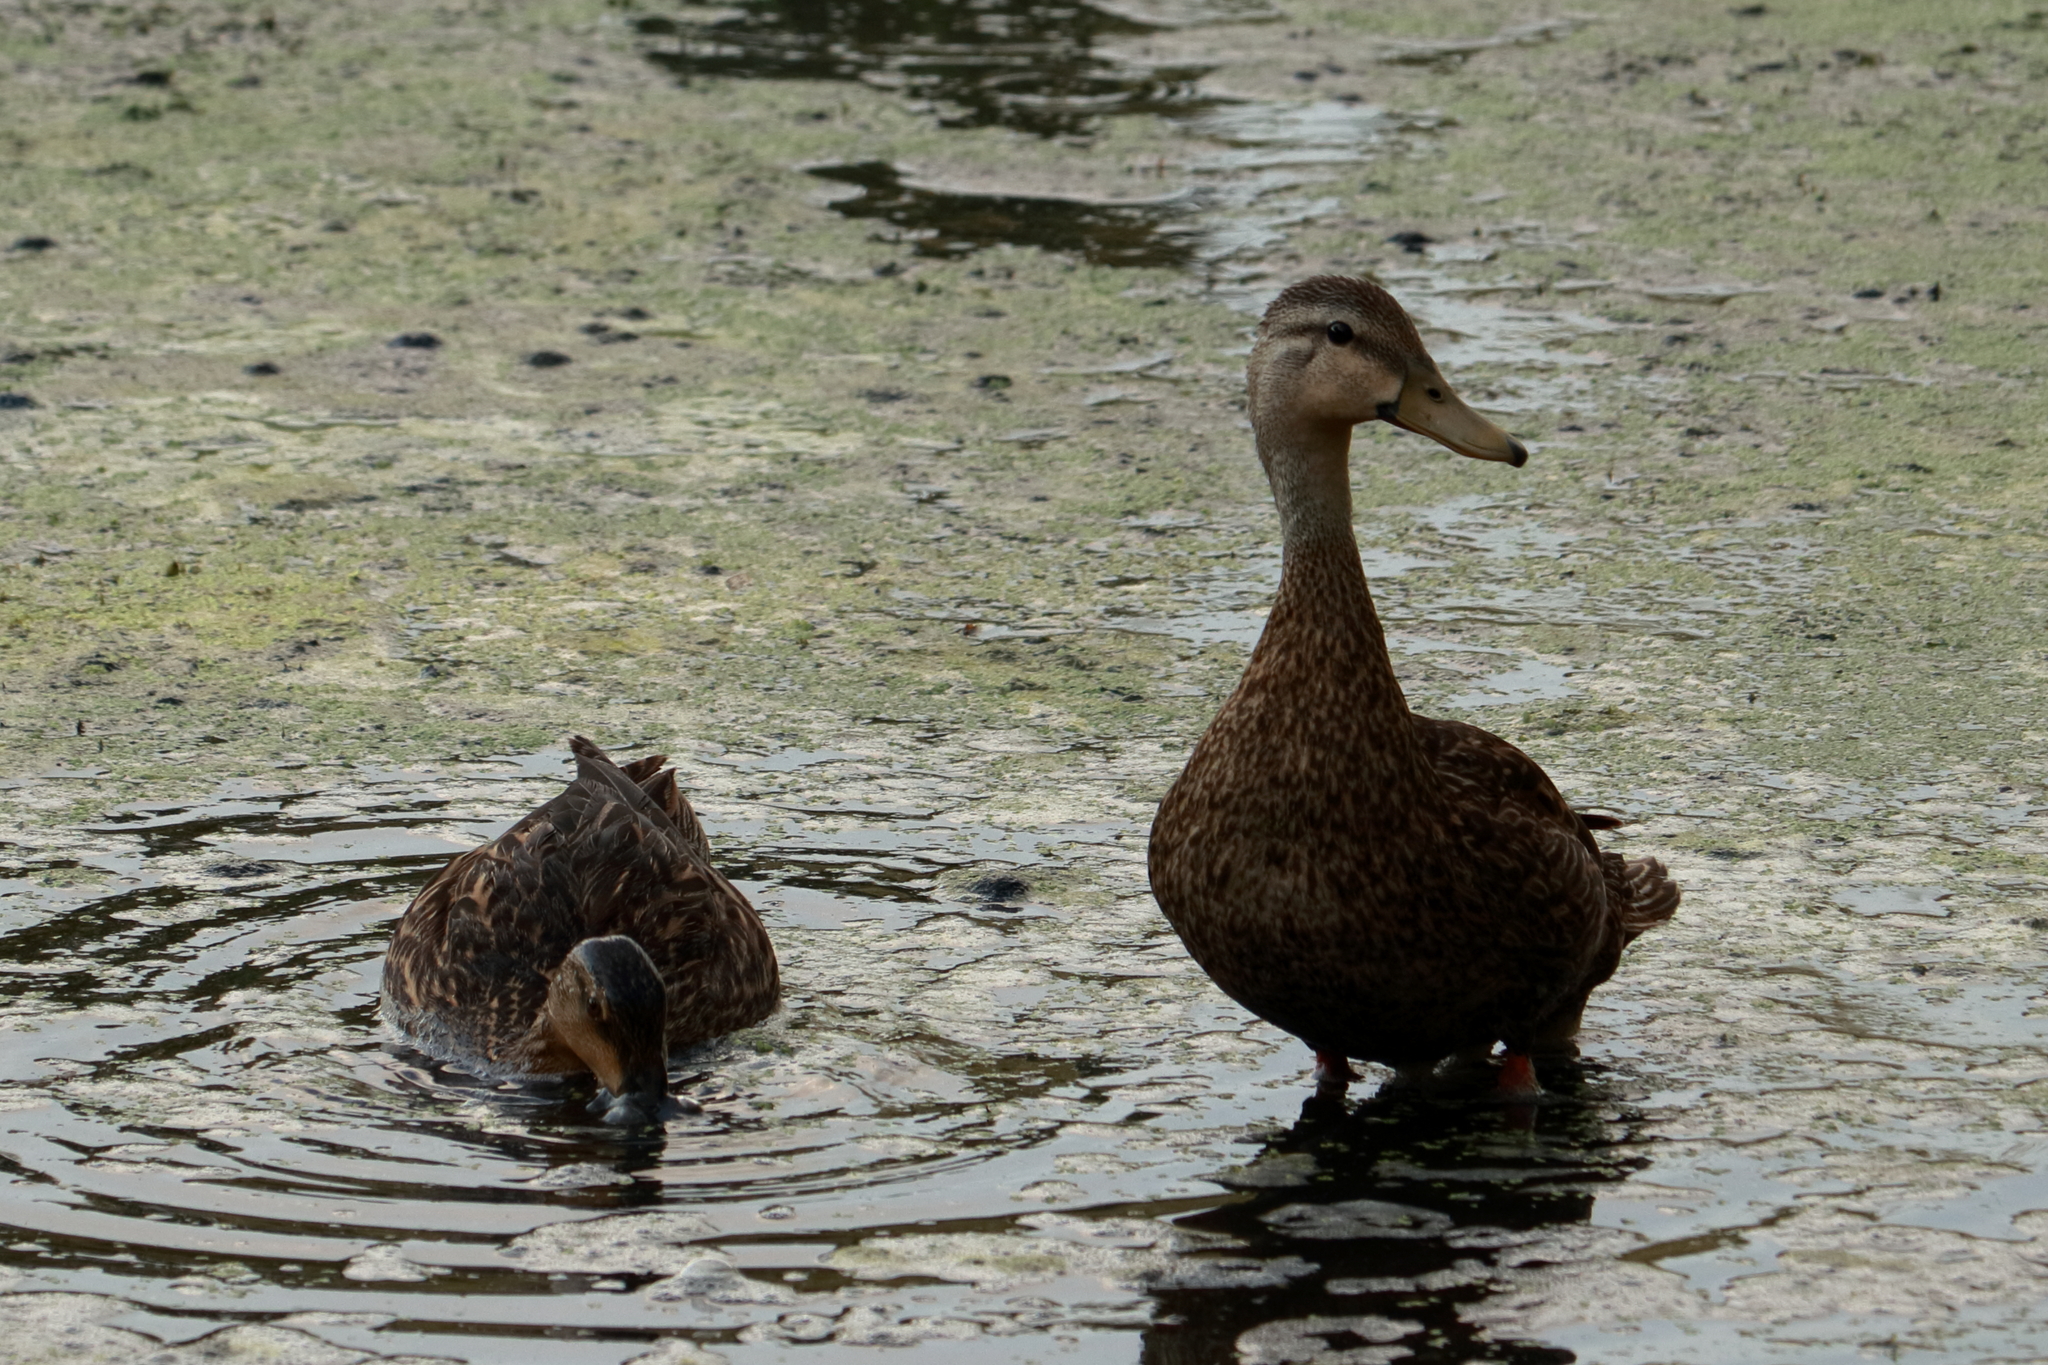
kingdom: Animalia
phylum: Chordata
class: Aves
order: Anseriformes
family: Anatidae
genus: Anas
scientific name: Anas
